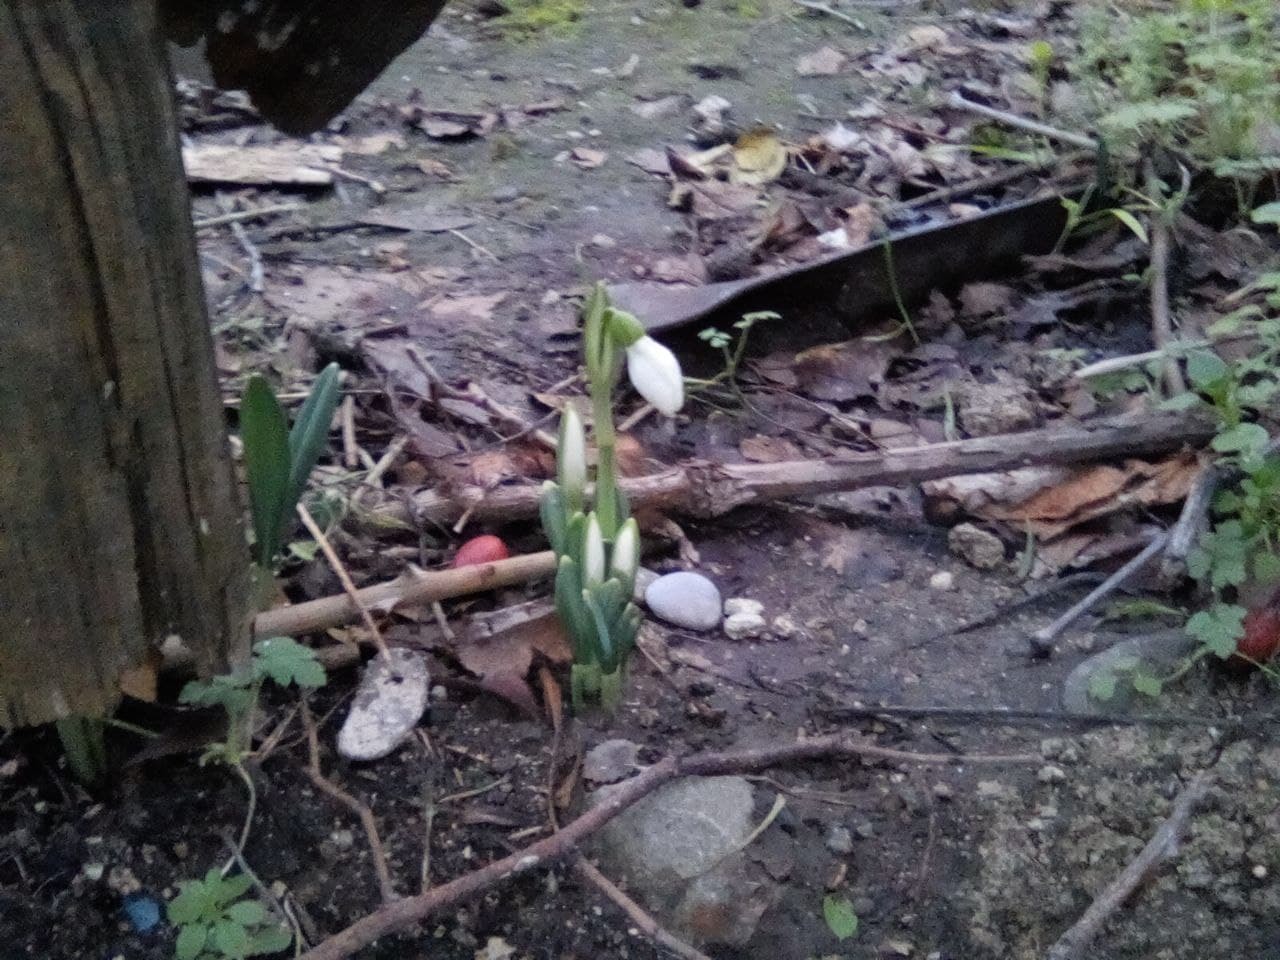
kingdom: Plantae
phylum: Tracheophyta
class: Liliopsida
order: Asparagales
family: Amaryllidaceae
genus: Galanthus
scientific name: Galanthus plicatus
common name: Pleated snowdrop
